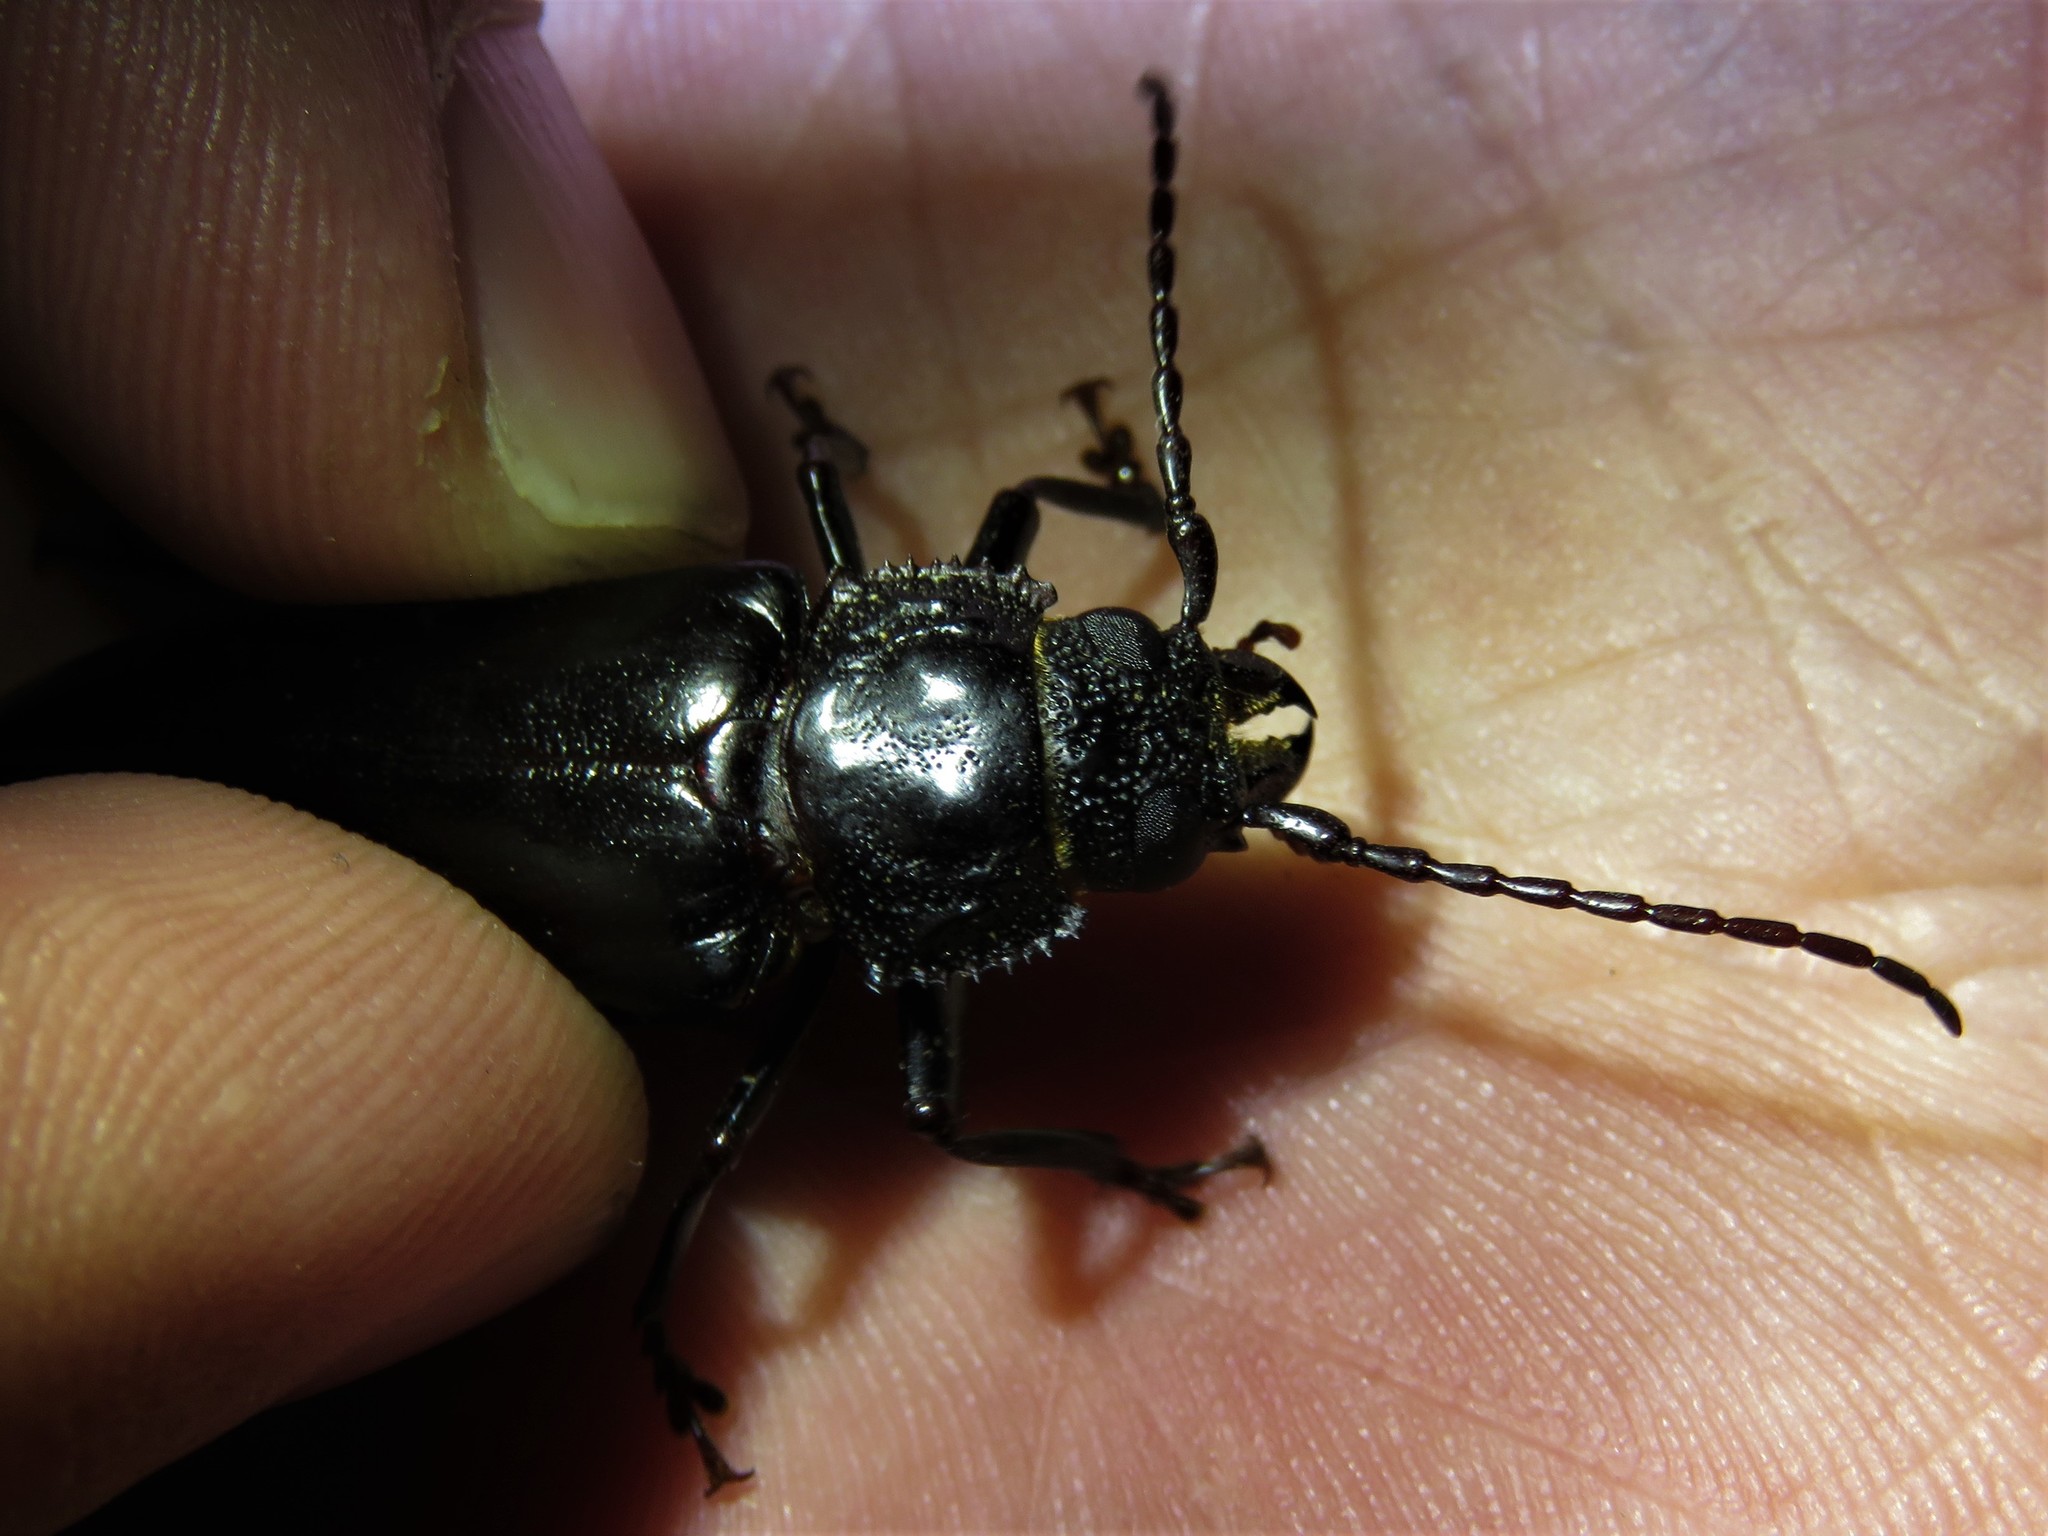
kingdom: Animalia
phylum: Arthropoda
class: Insecta
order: Coleoptera
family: Cerambycidae
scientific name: Cerambycidae
